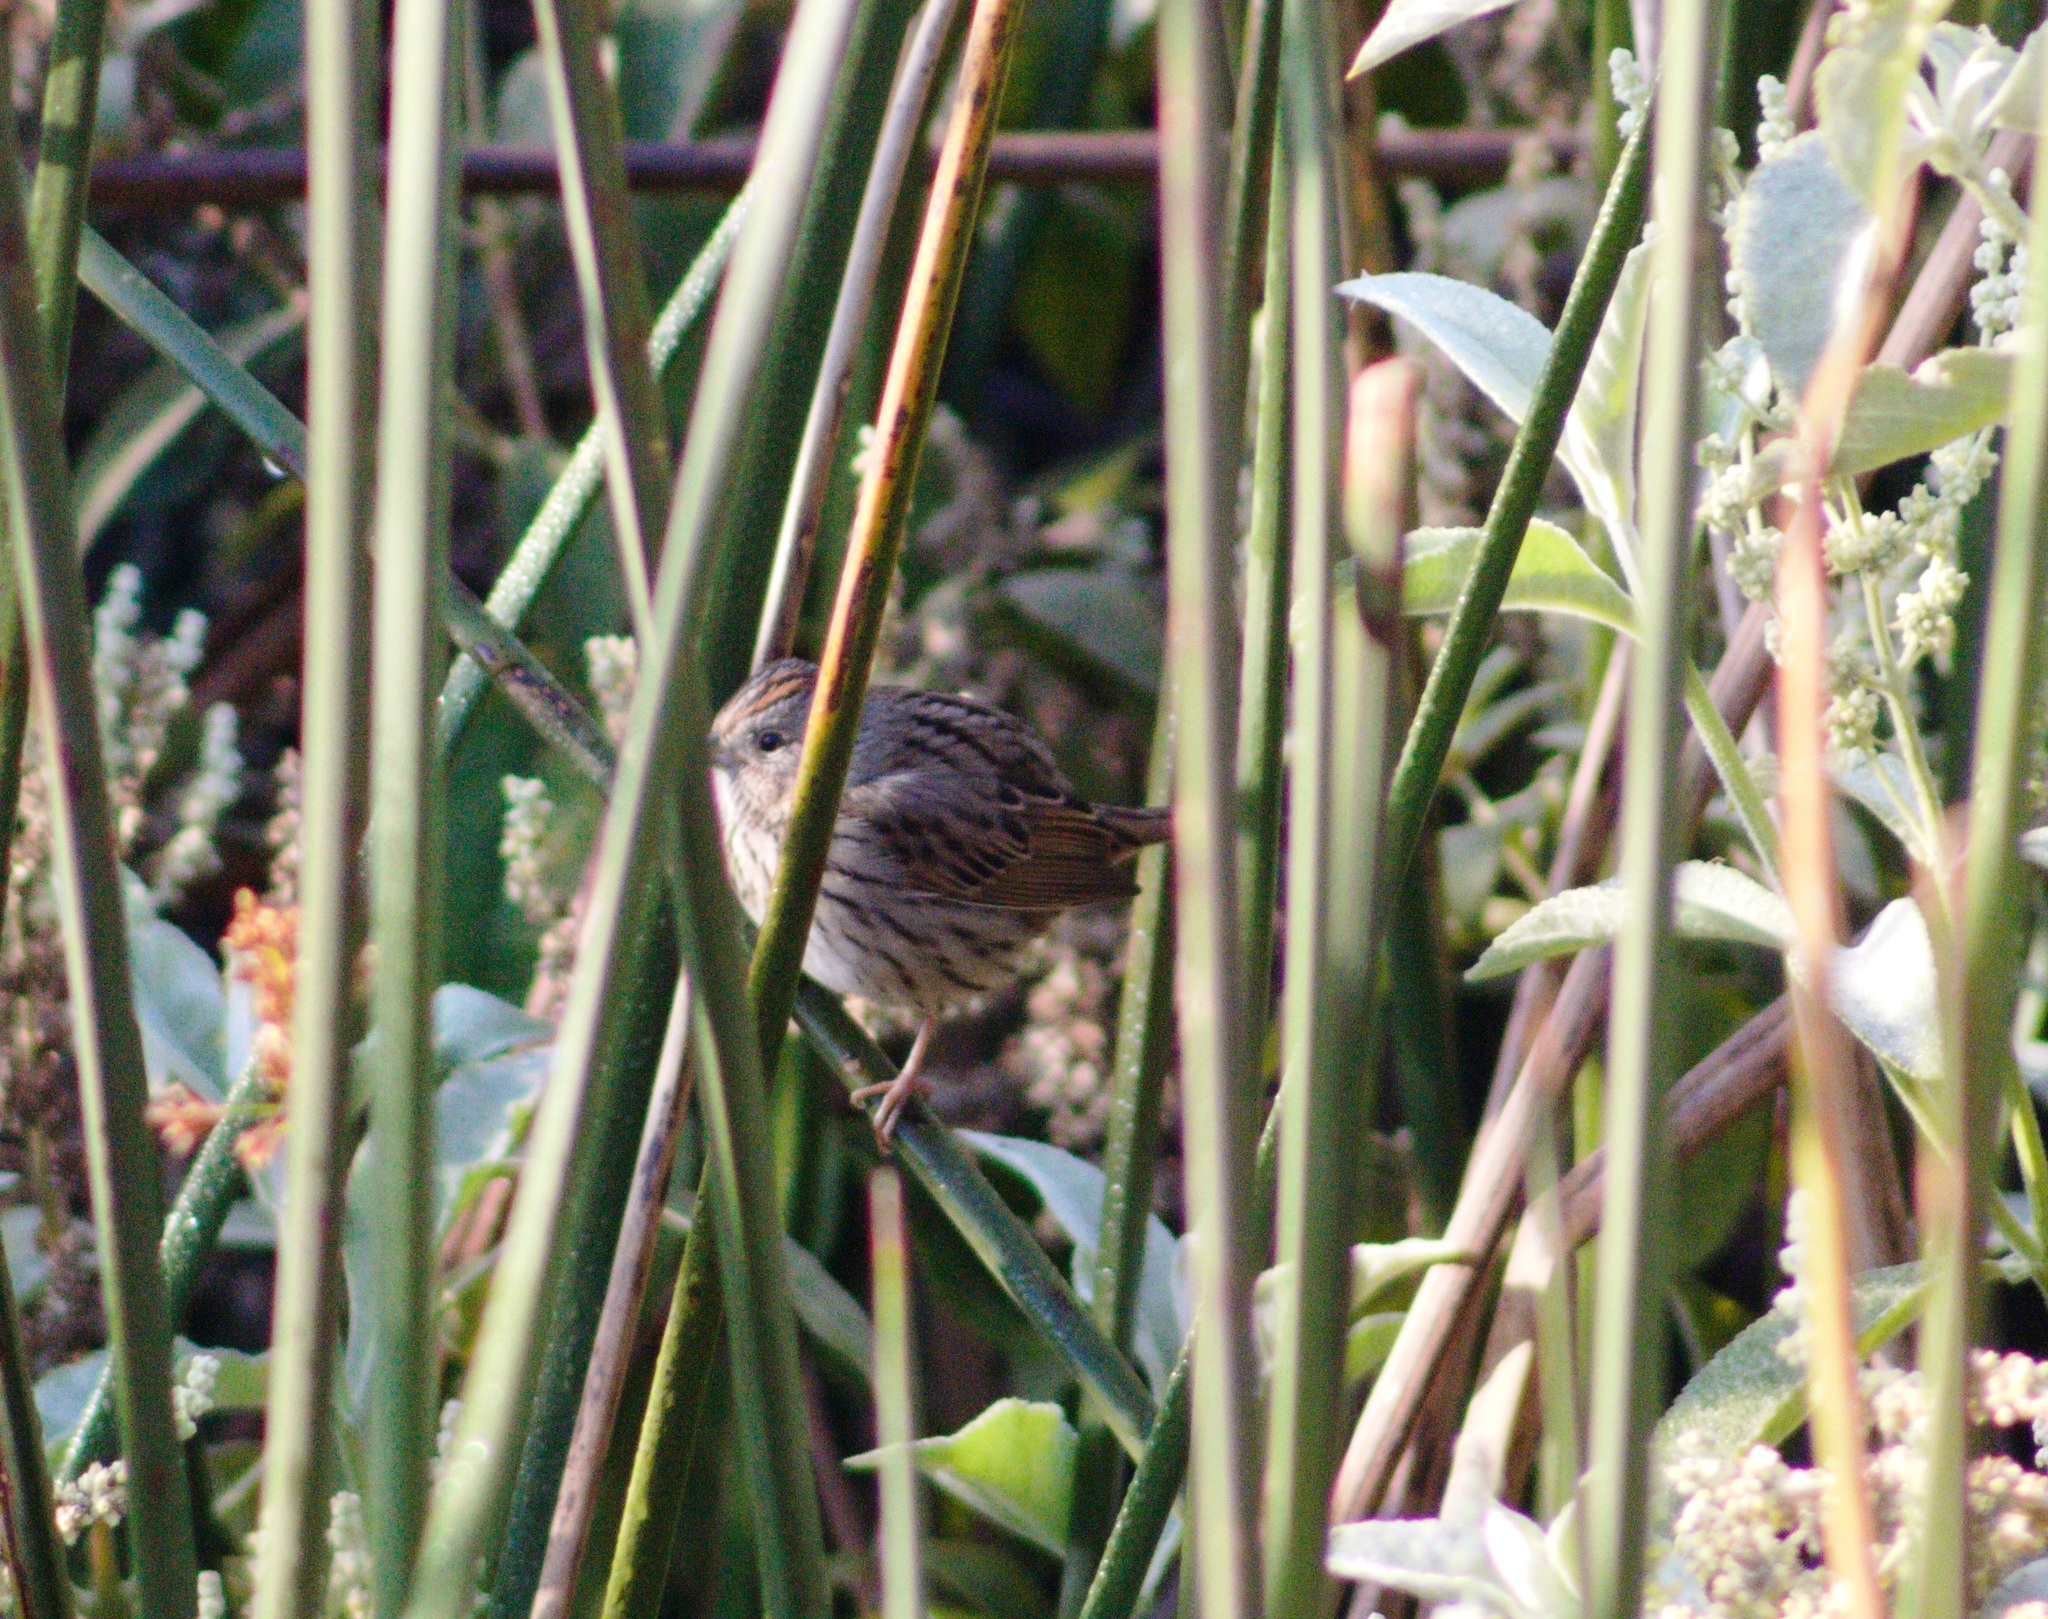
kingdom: Animalia
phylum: Chordata
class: Aves
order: Passeriformes
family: Passerellidae
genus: Melospiza
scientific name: Melospiza lincolnii
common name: Lincoln's sparrow
